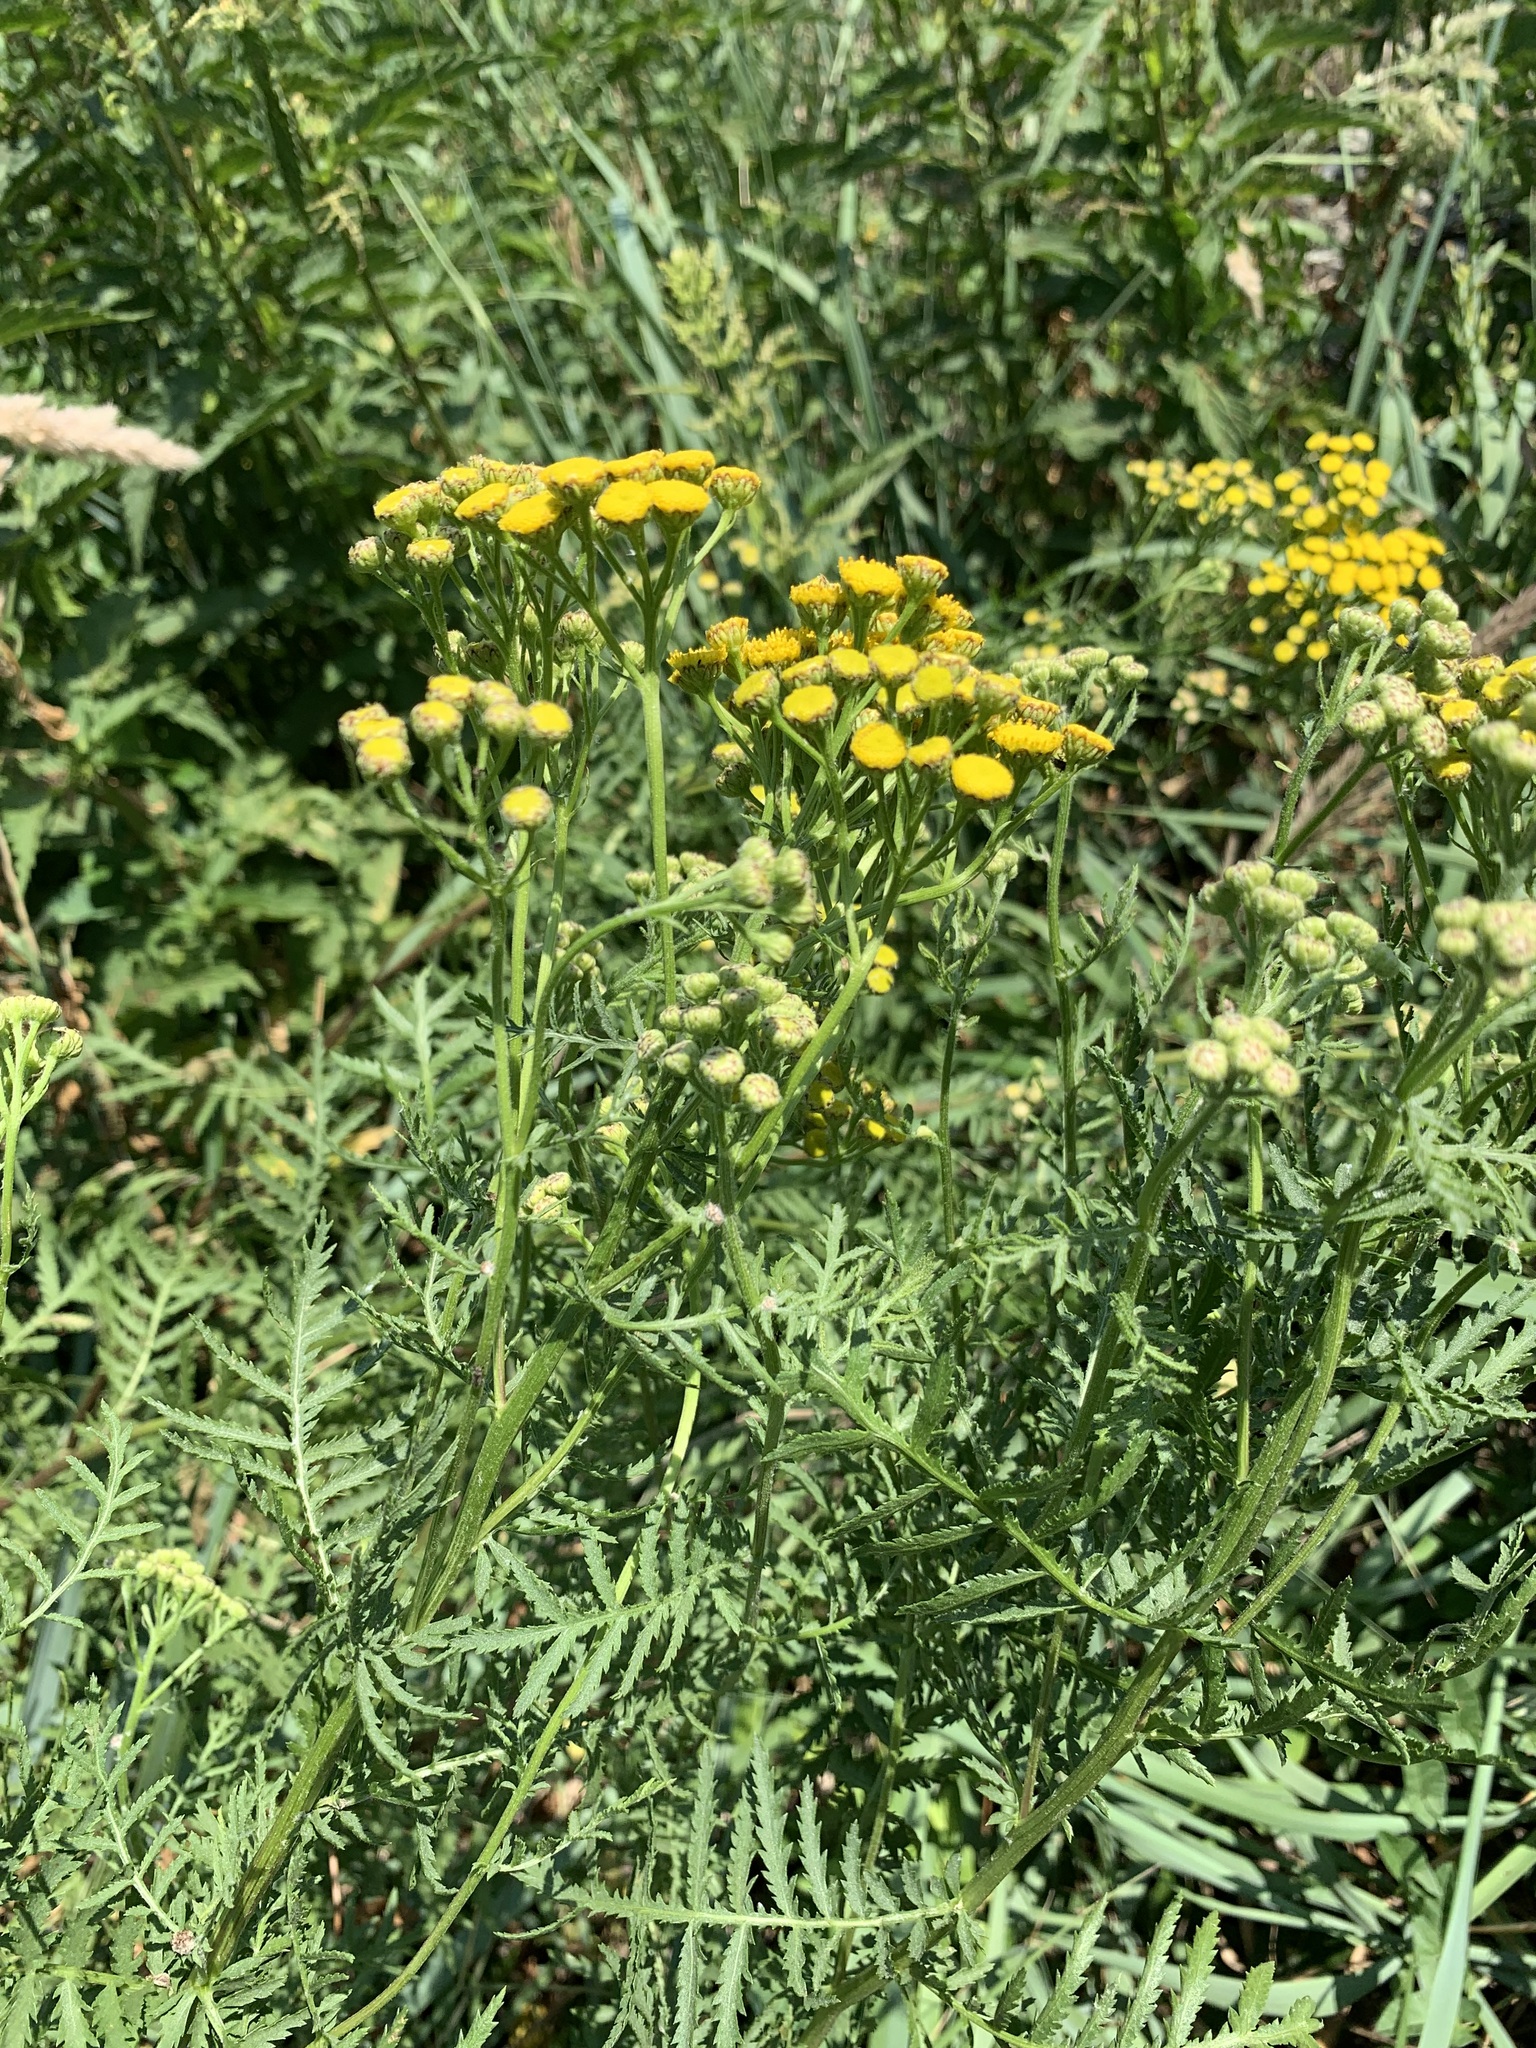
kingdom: Plantae
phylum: Tracheophyta
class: Magnoliopsida
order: Asterales
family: Asteraceae
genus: Tanacetum
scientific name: Tanacetum vulgare
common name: Common tansy
